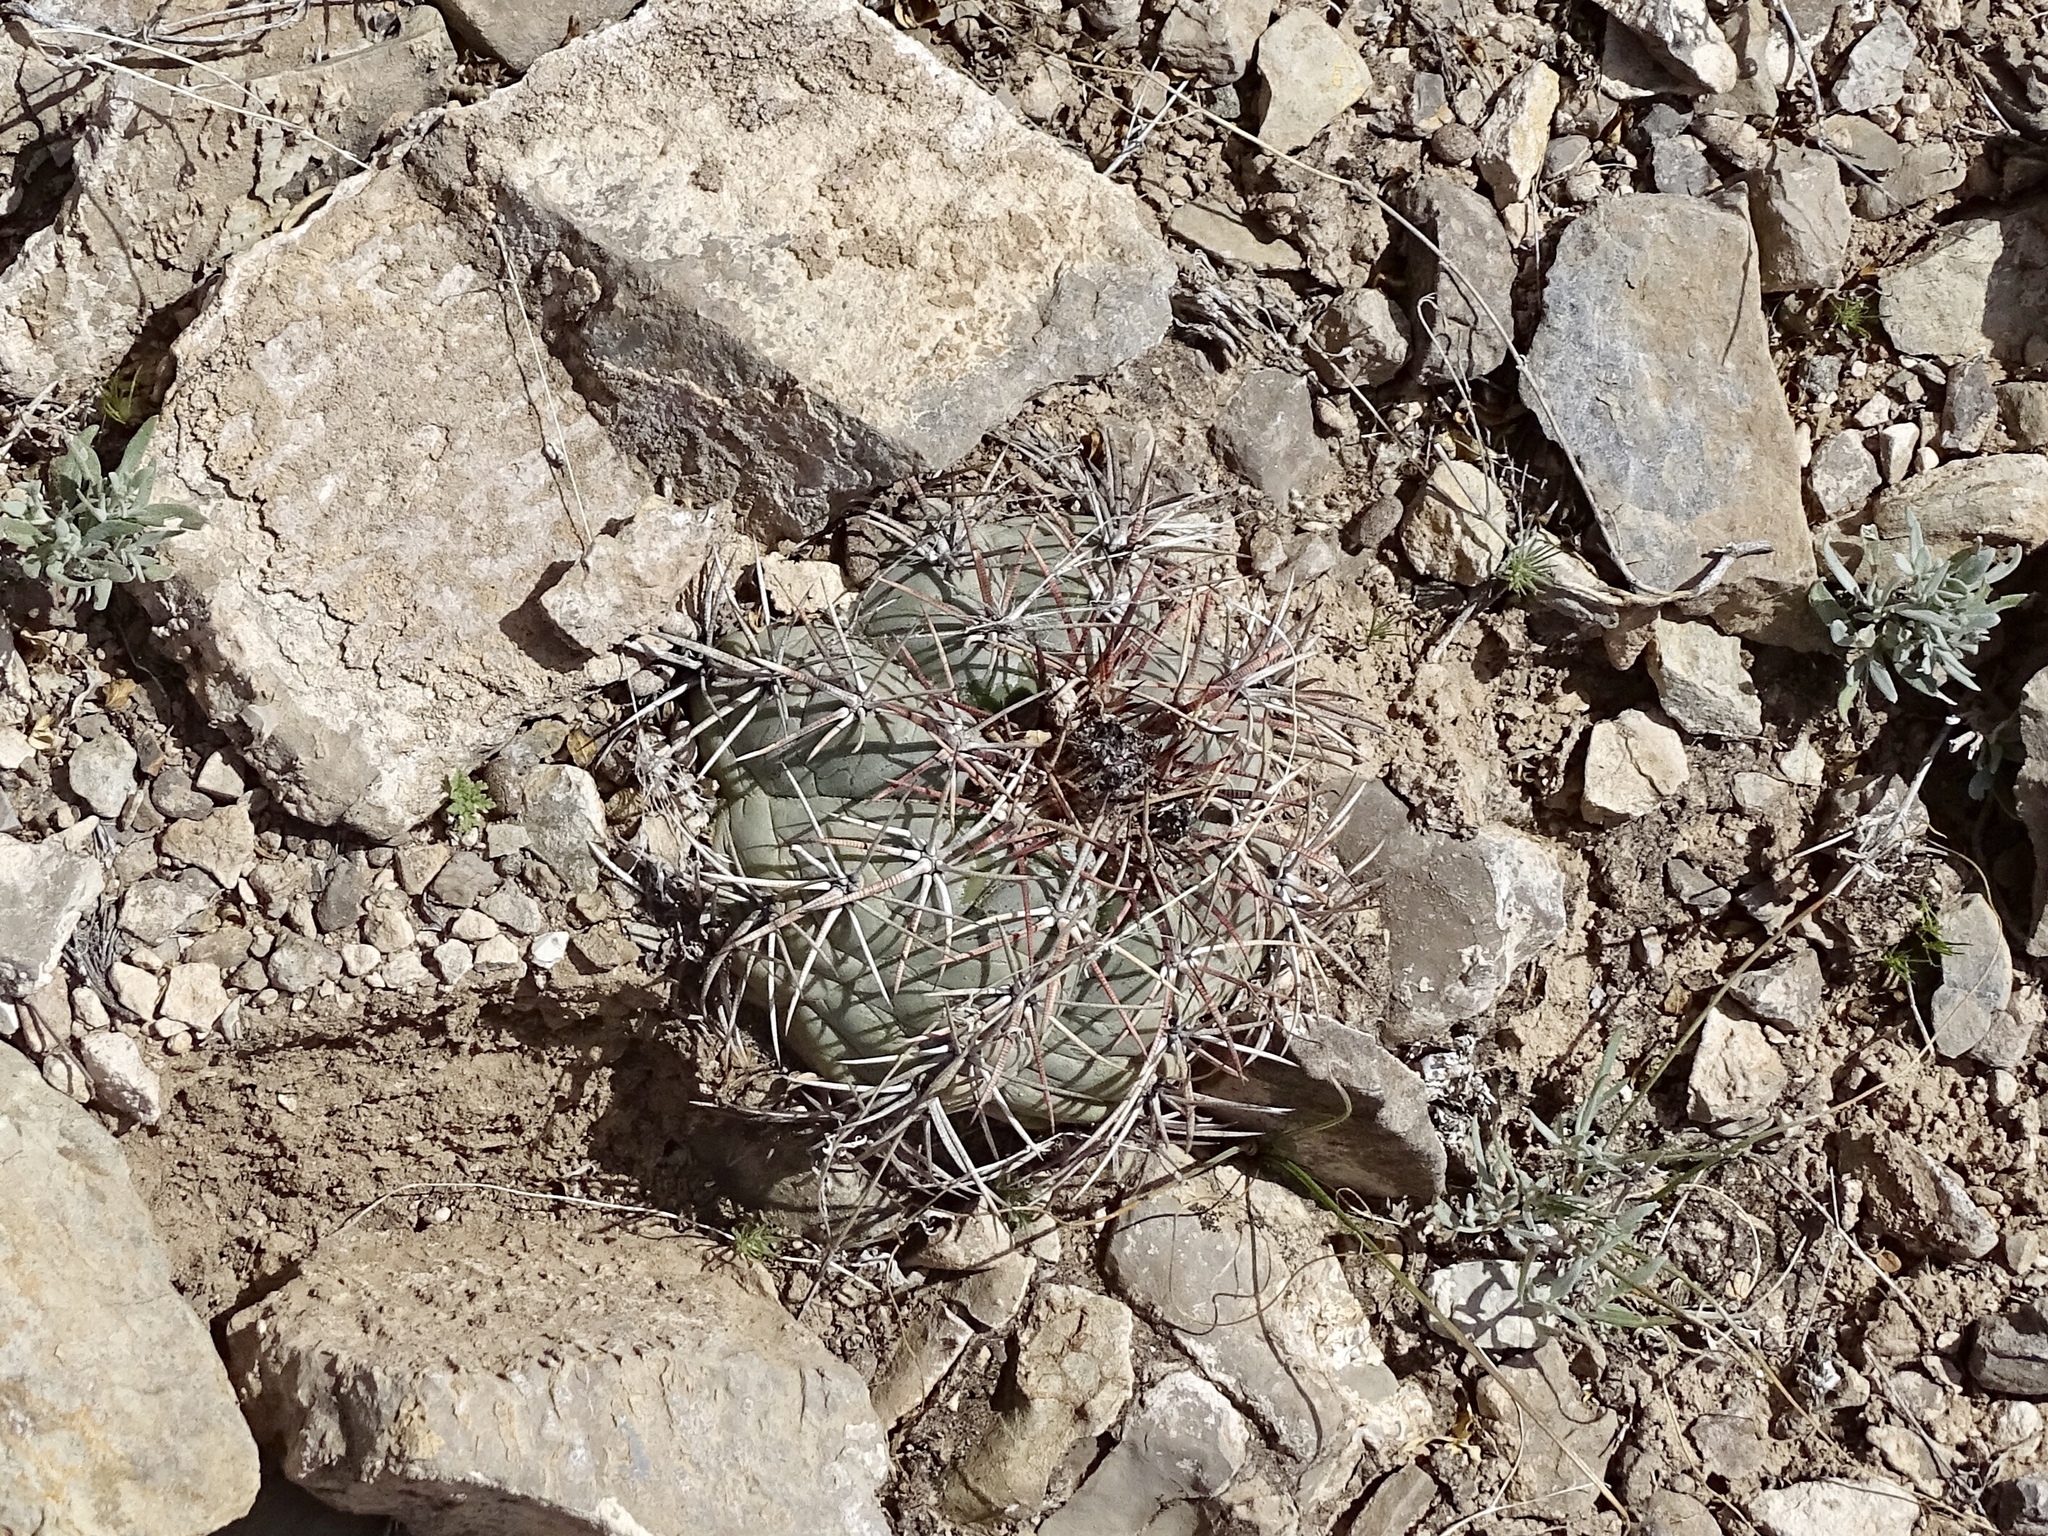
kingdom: Plantae
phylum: Tracheophyta
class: Magnoliopsida
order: Caryophyllales
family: Cactaceae
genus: Echinocactus
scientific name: Echinocactus horizonthalonius
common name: Devilshead
